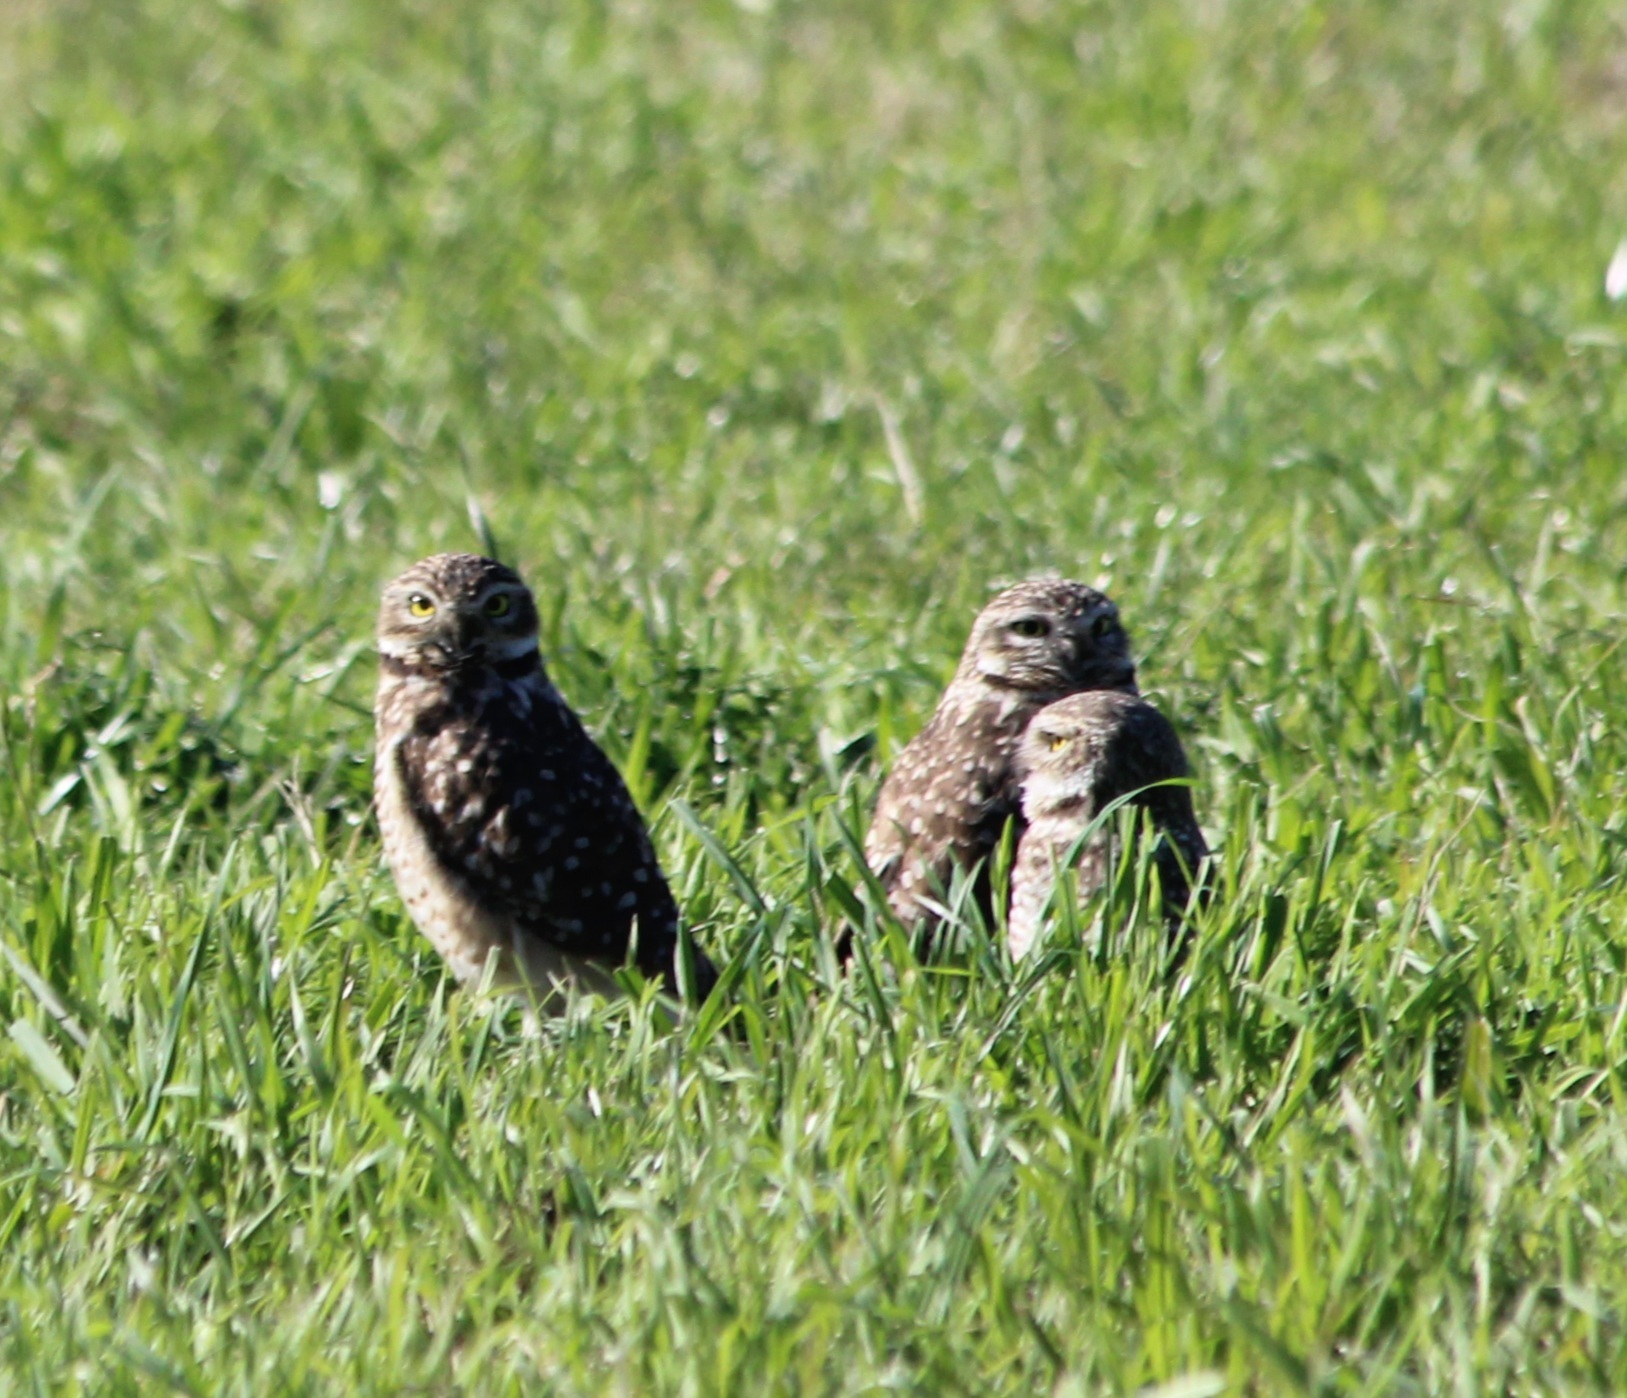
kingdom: Animalia
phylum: Chordata
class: Aves
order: Strigiformes
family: Strigidae
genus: Athene
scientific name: Athene cunicularia
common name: Burrowing owl
